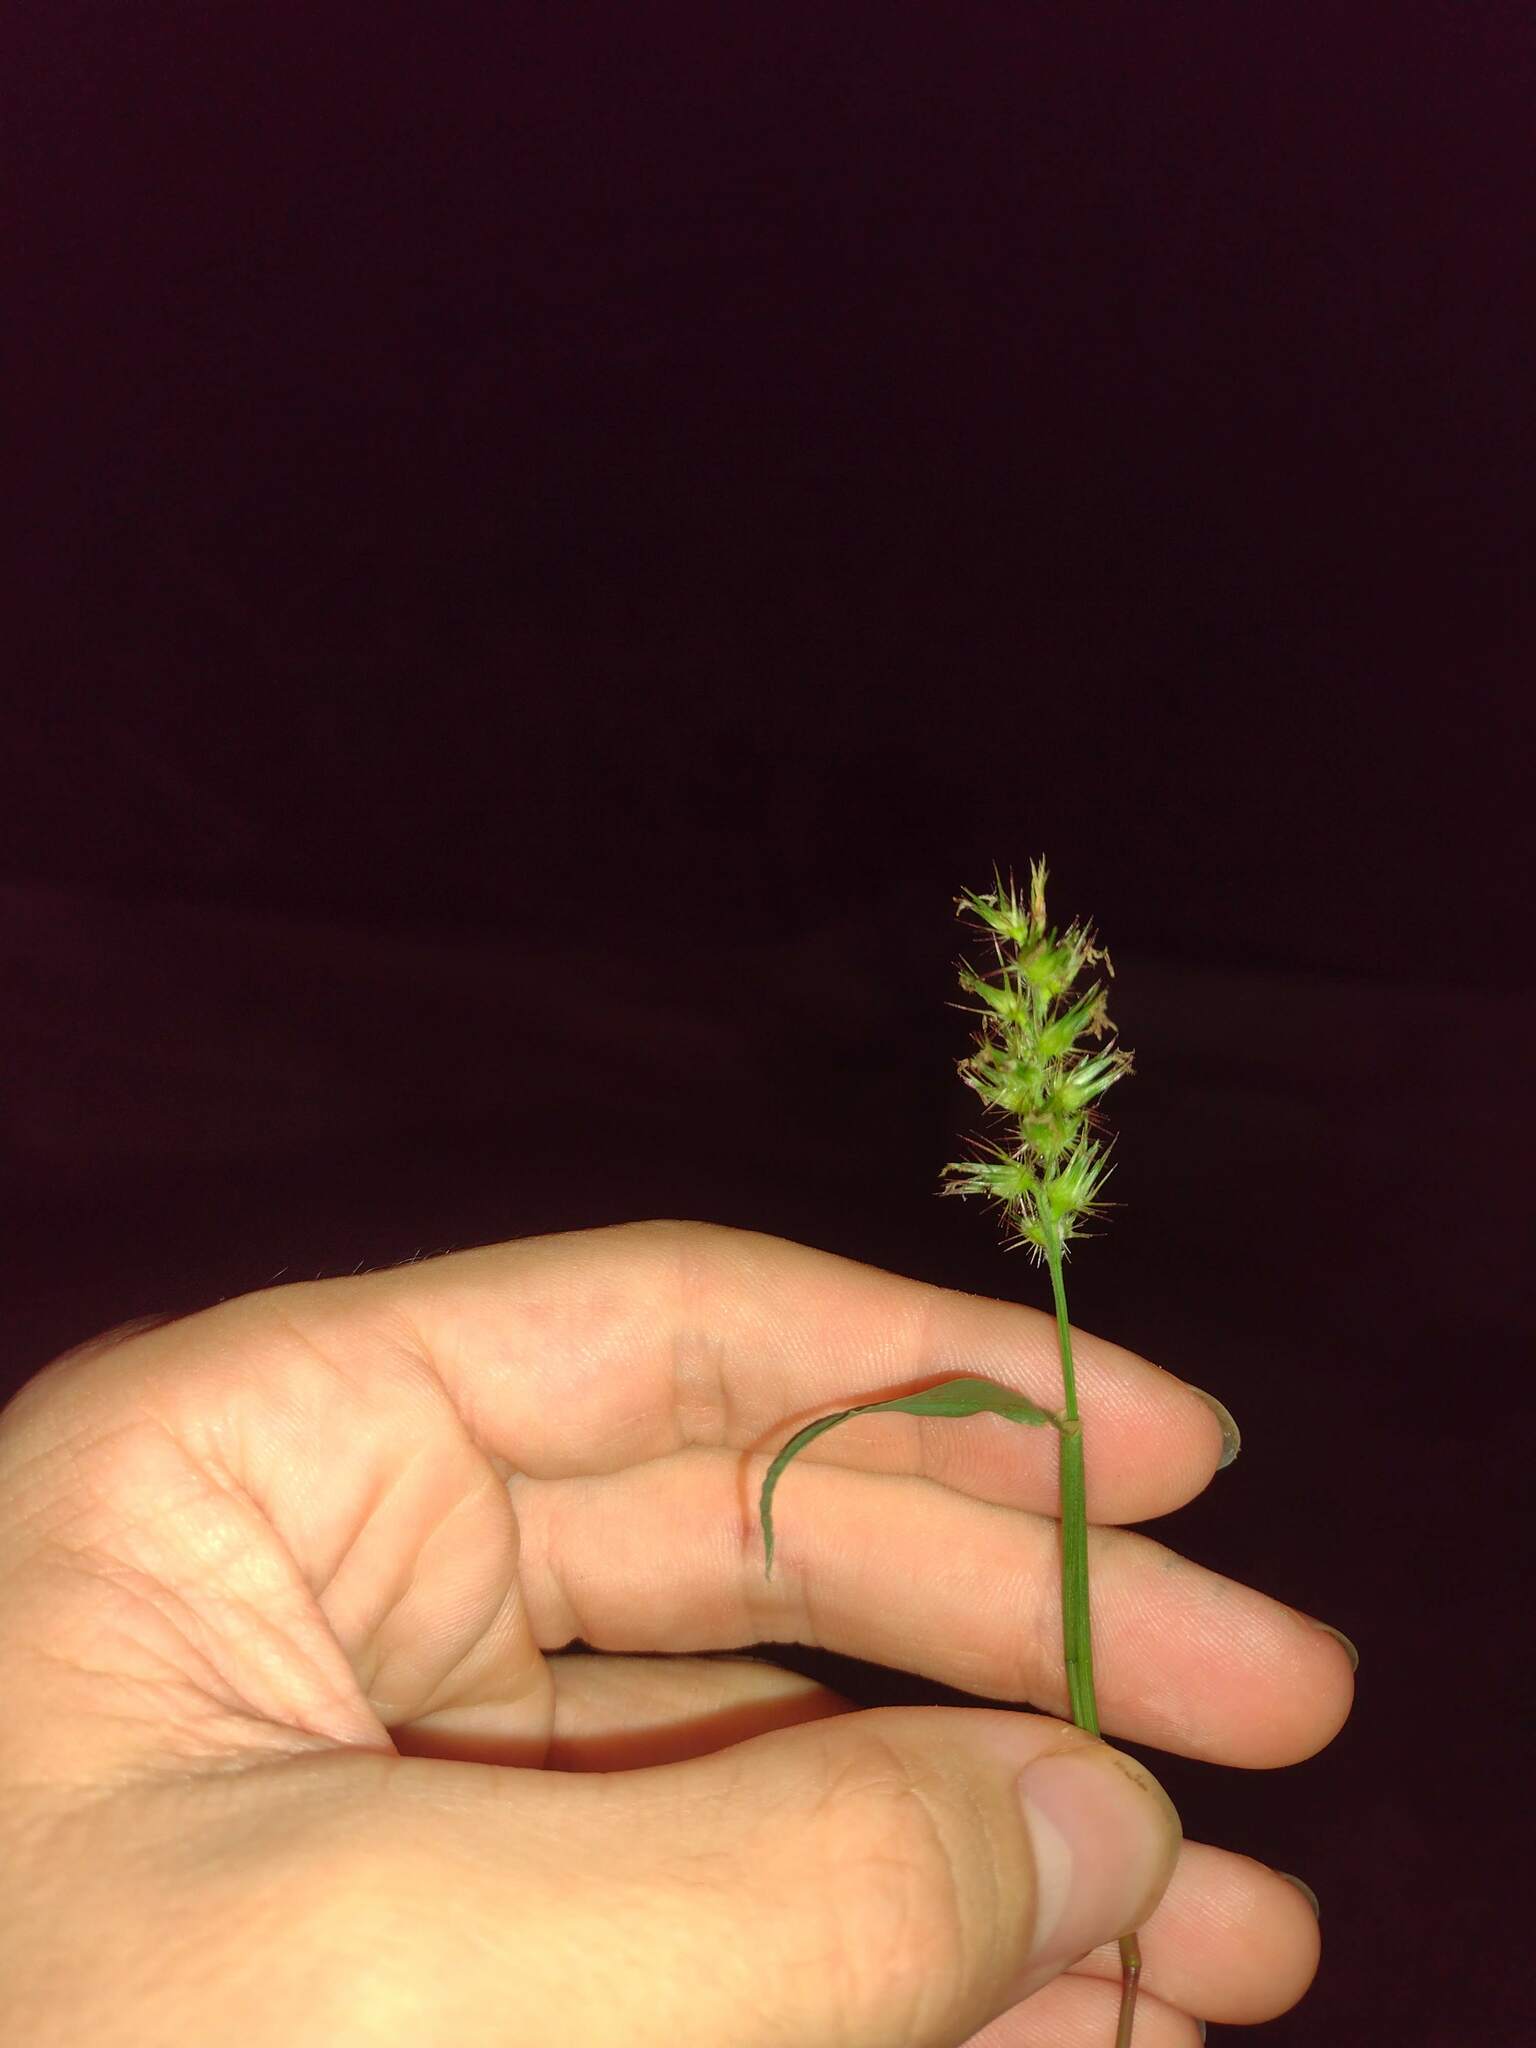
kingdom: Plantae
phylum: Tracheophyta
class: Liliopsida
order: Poales
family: Poaceae
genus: Cenchrus
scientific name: Cenchrus echinatus
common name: Southern sandbur
